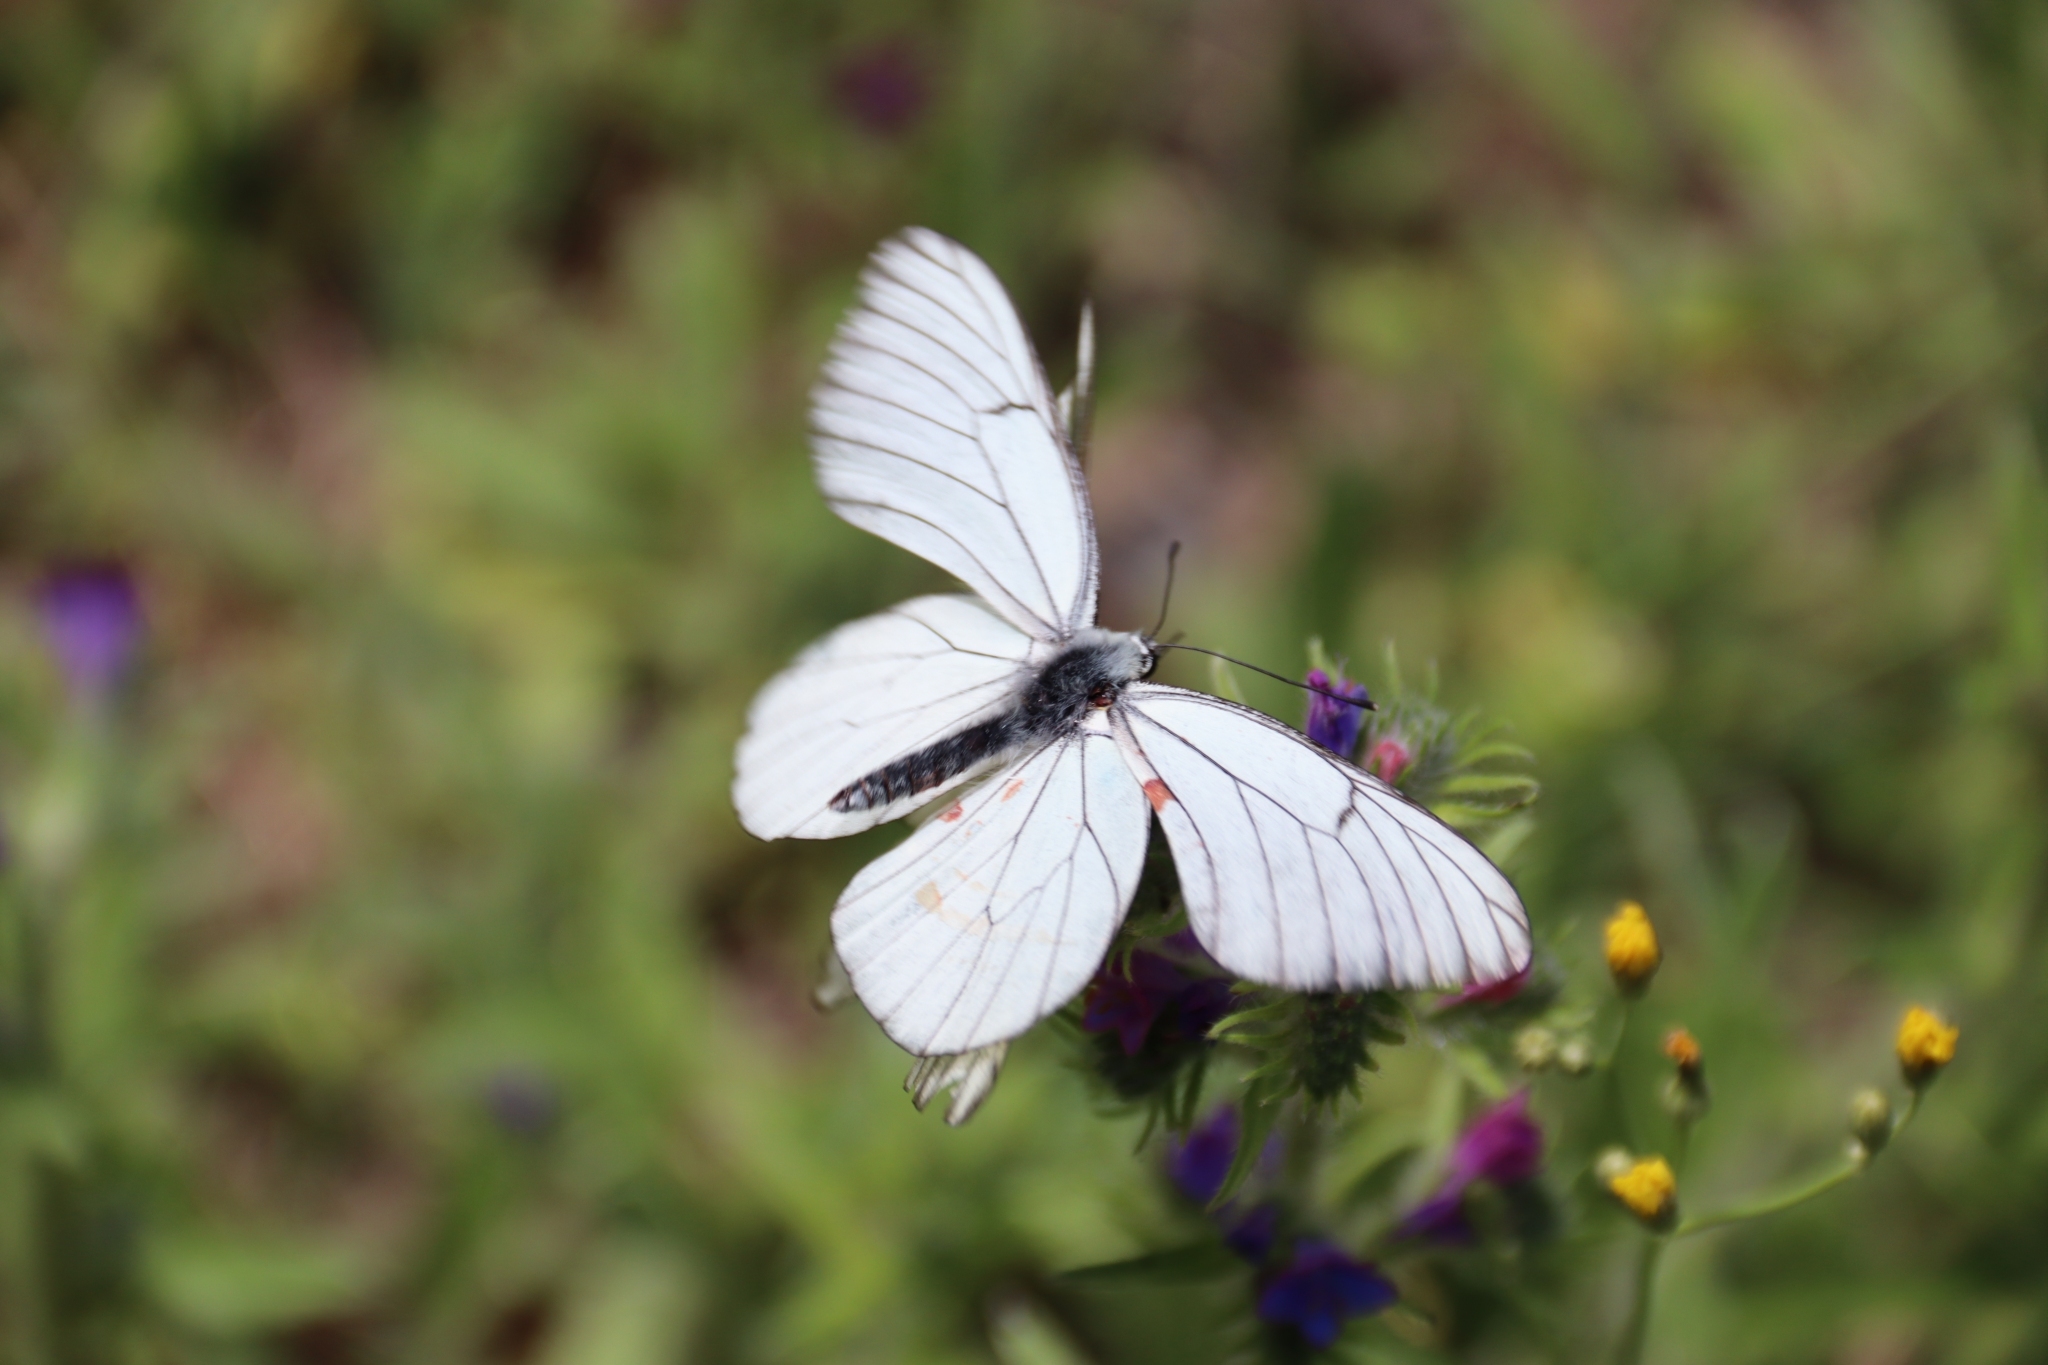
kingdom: Animalia
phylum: Arthropoda
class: Insecta
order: Lepidoptera
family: Pieridae
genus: Aporia
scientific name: Aporia crataegi
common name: Black-veined white
